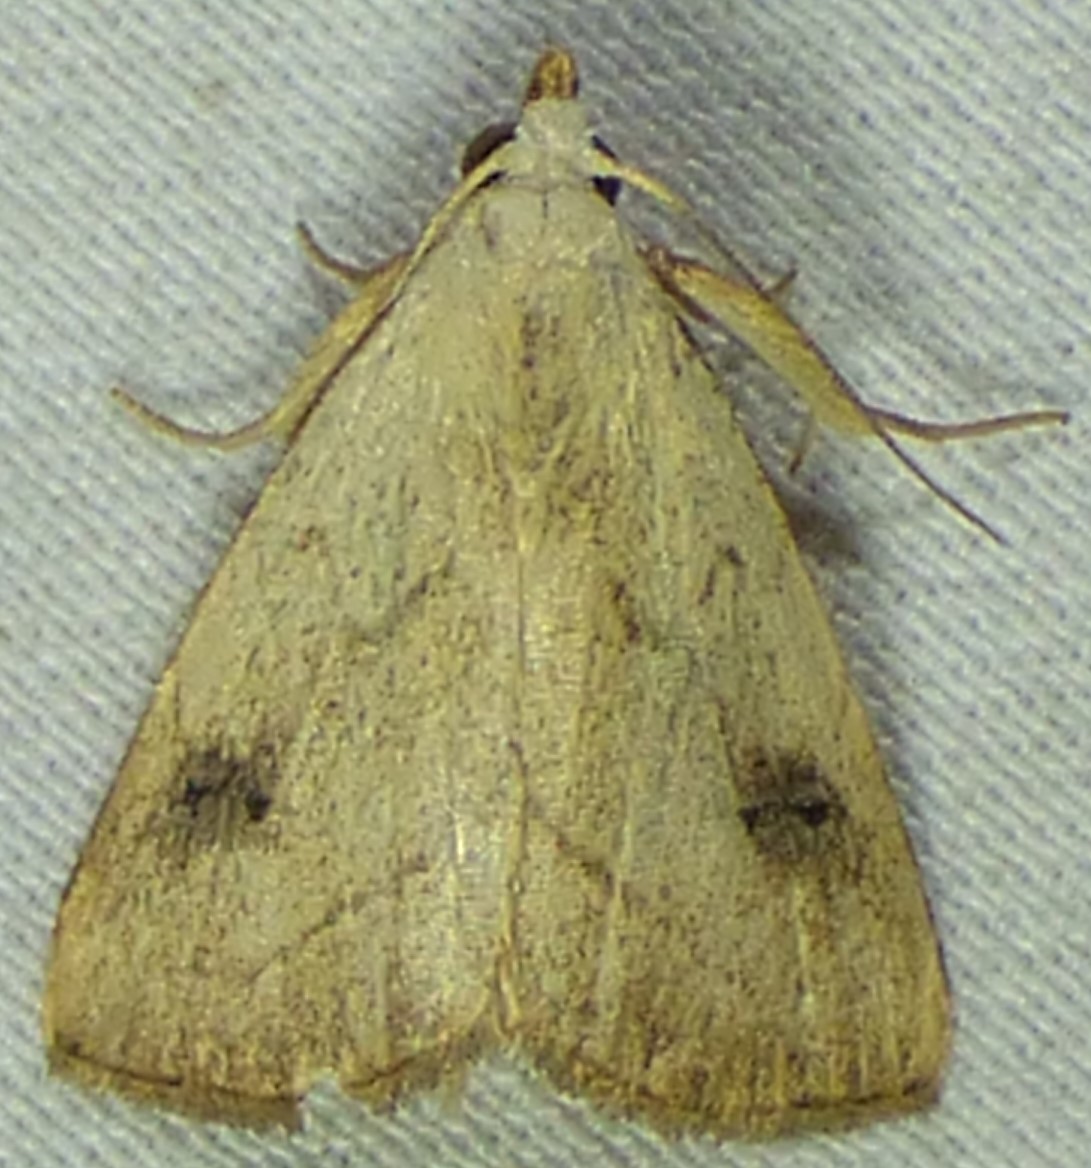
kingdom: Animalia
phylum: Arthropoda
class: Insecta
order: Lepidoptera
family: Erebidae
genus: Rivula
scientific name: Rivula propinqualis
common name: Spotted grass moth
